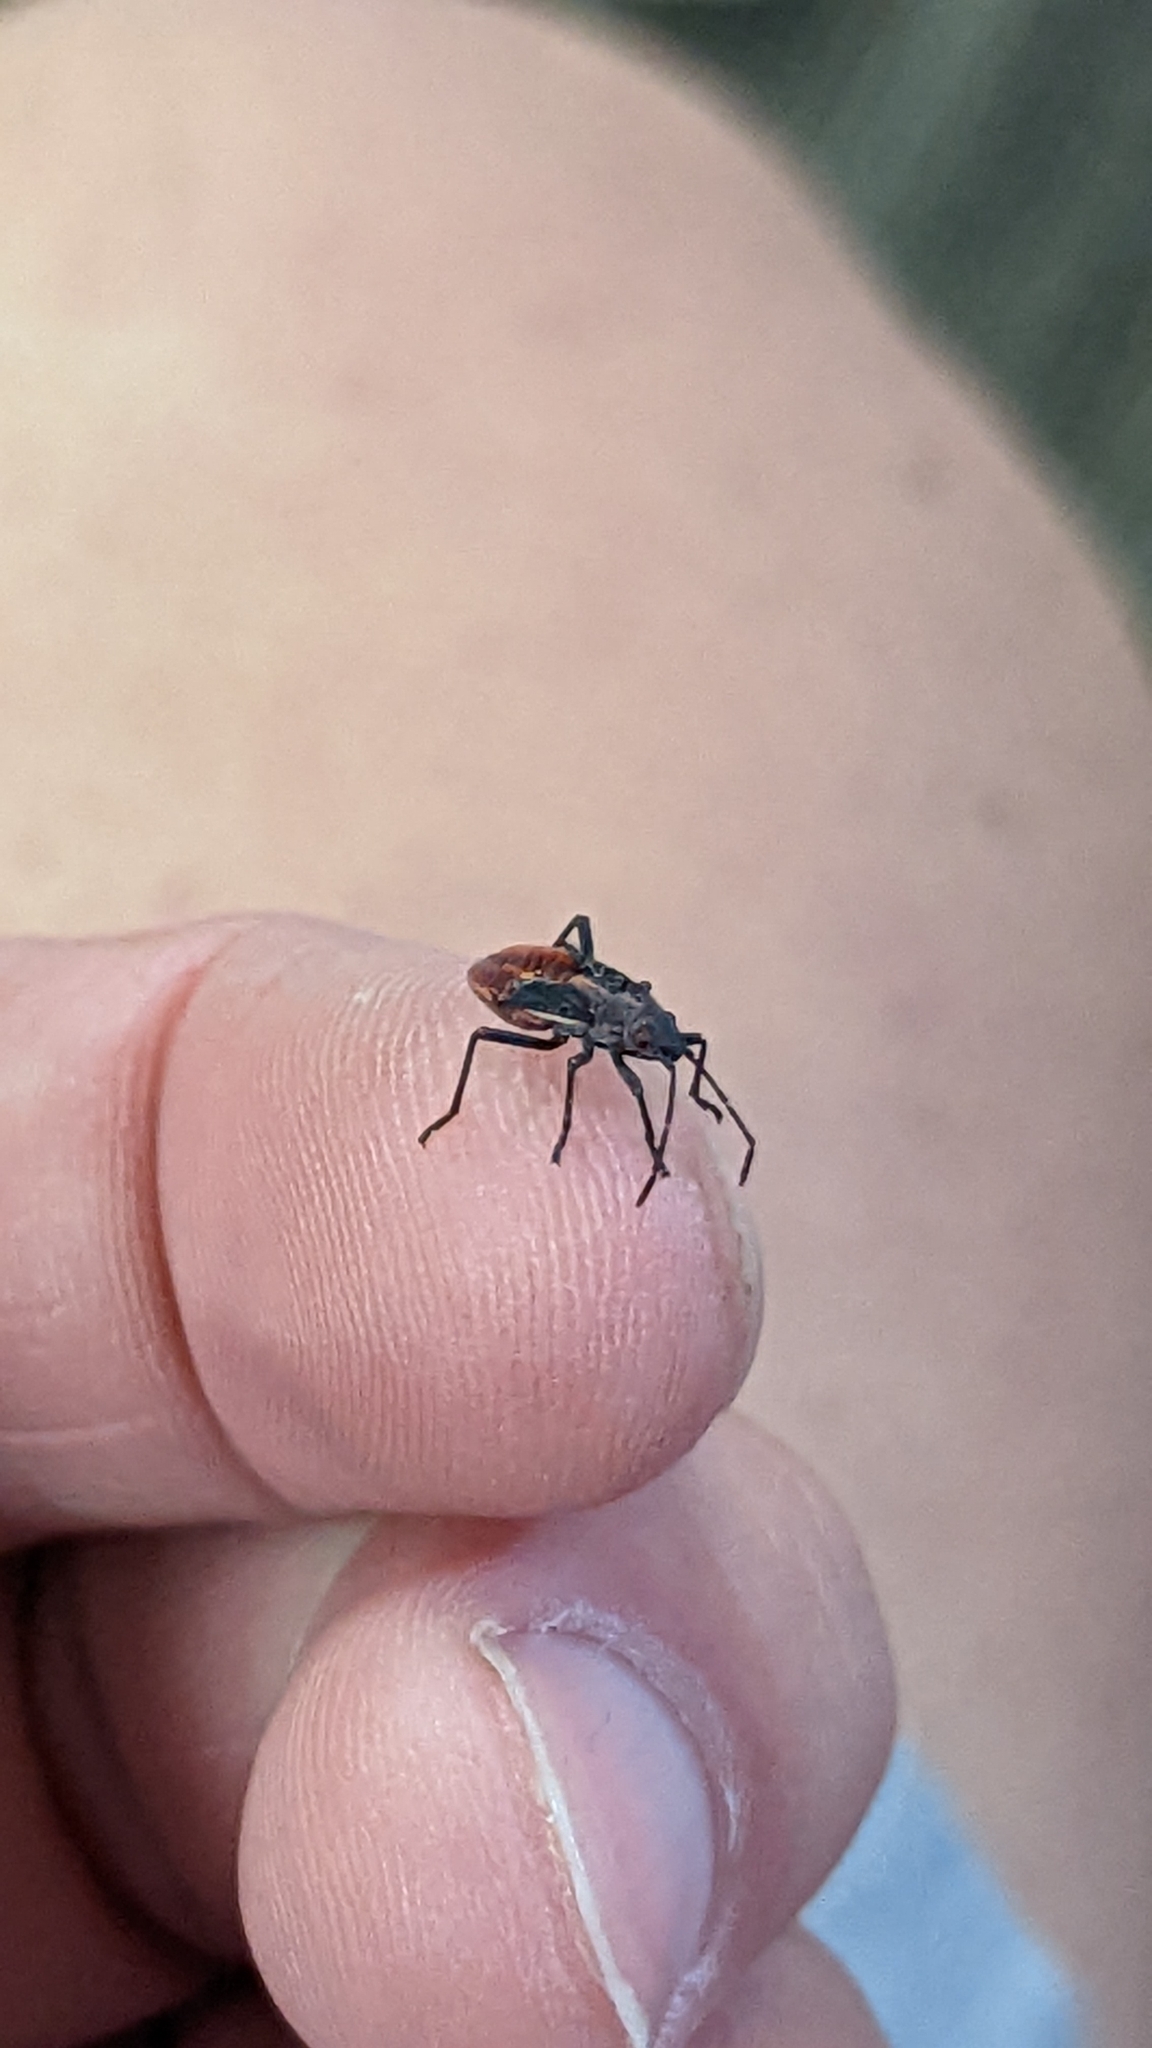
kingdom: Animalia
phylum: Arthropoda
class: Insecta
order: Hemiptera
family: Rhopalidae
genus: Boisea
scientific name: Boisea trivittata
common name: Boxelder bug
